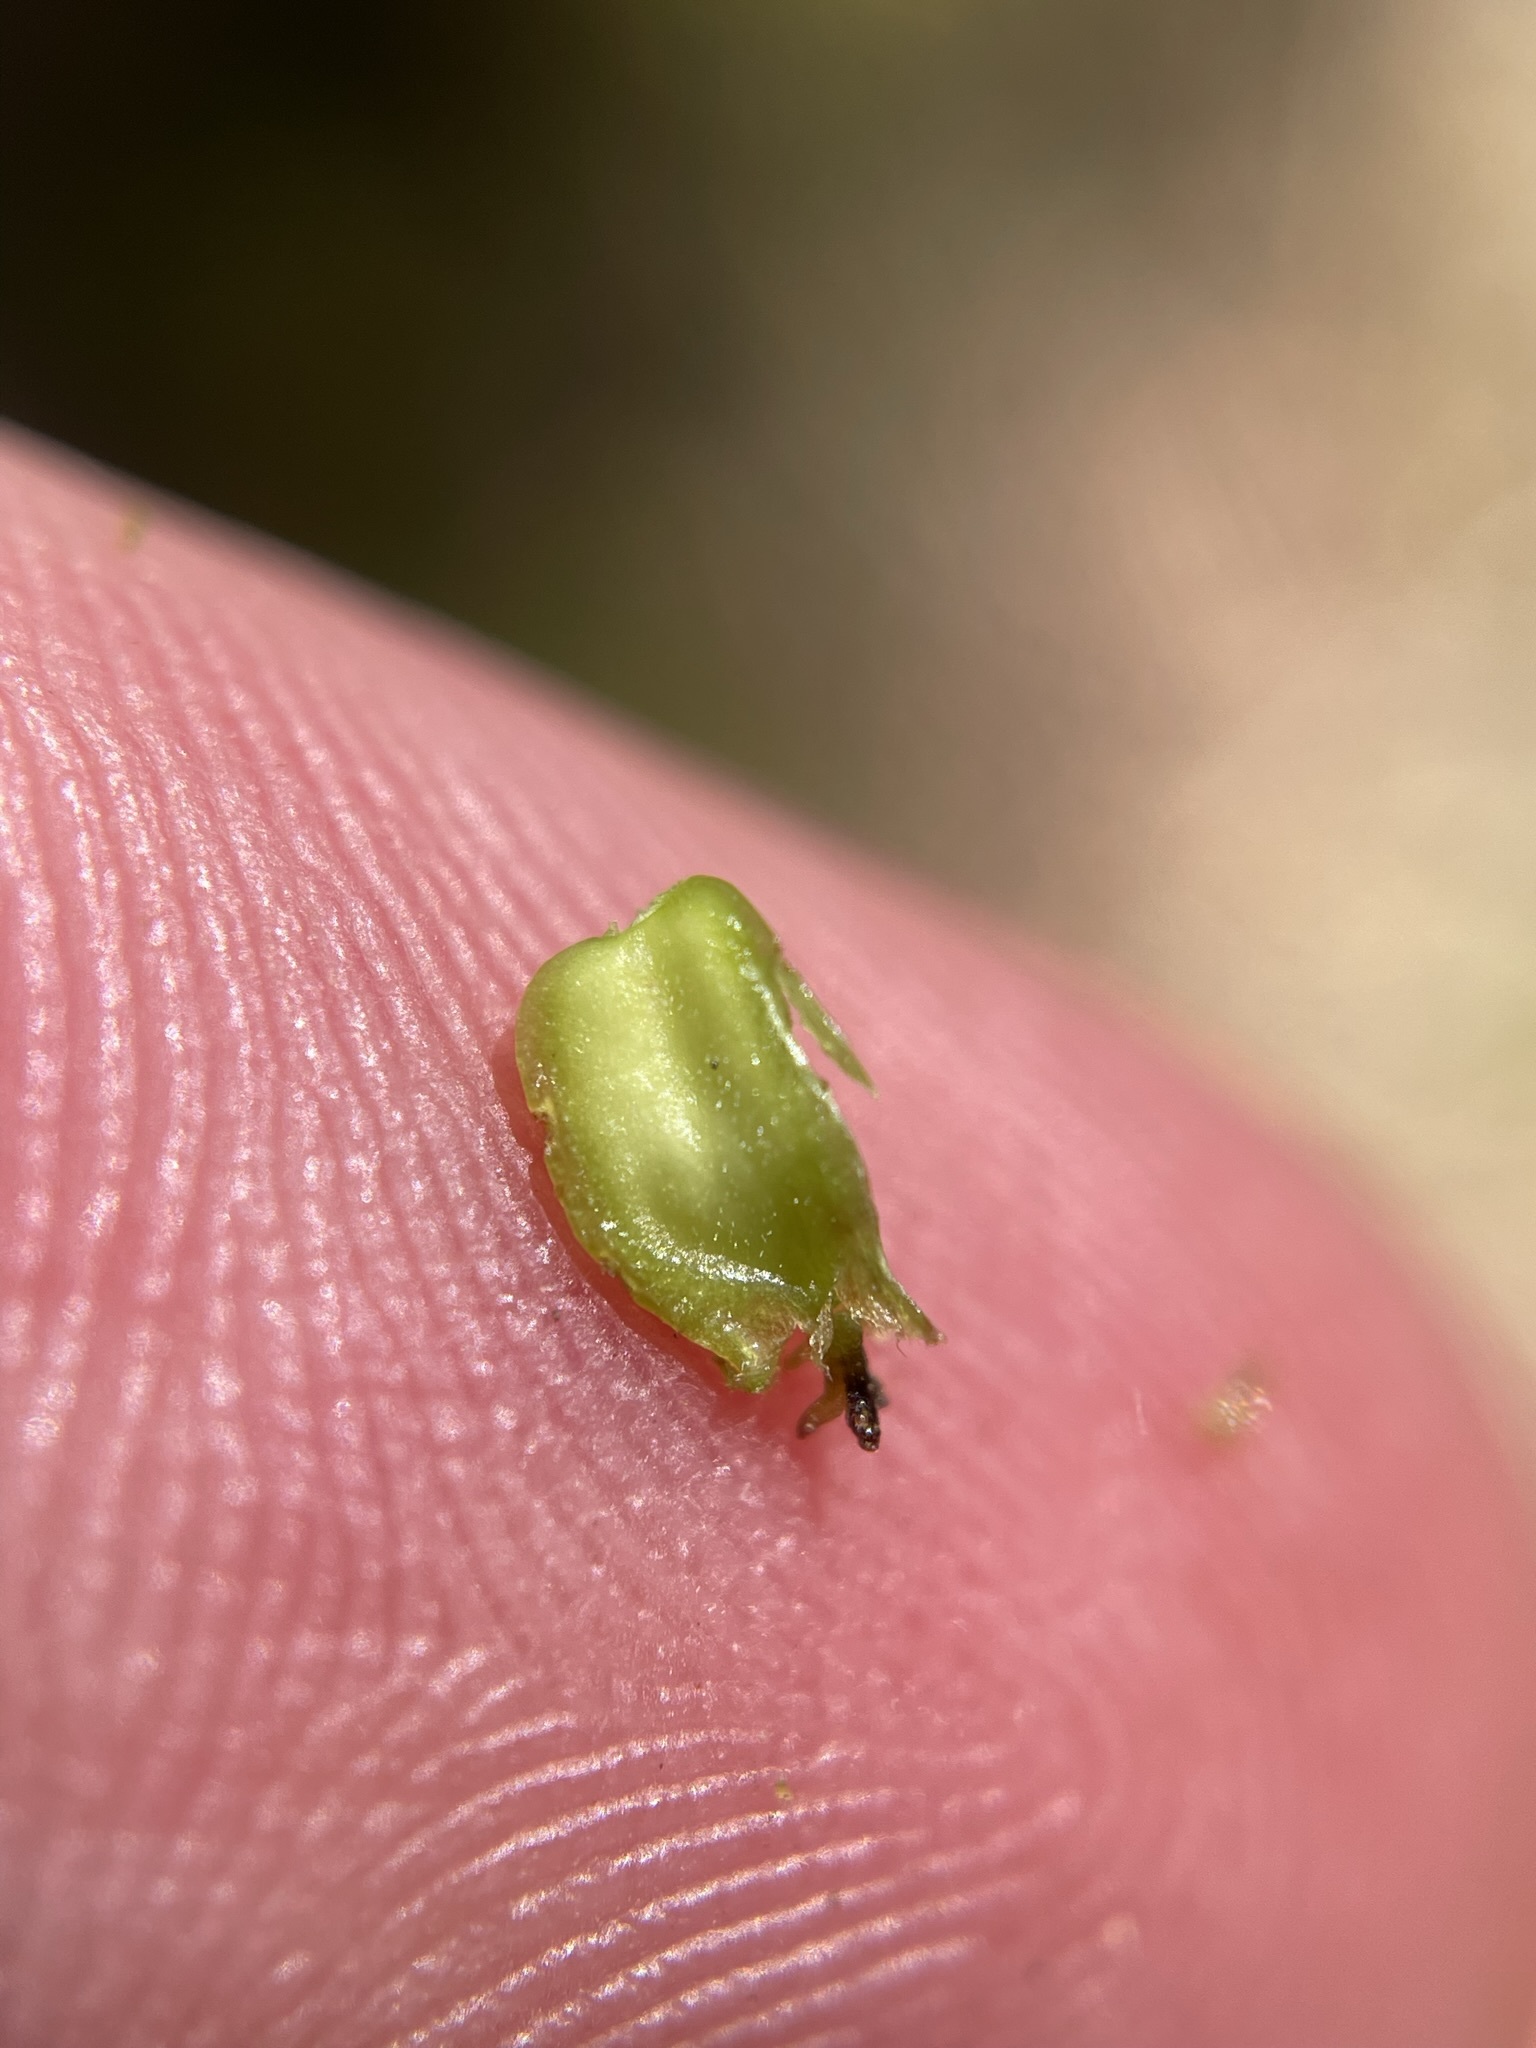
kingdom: Plantae
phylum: Tracheophyta
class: Magnoliopsida
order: Fagales
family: Nothofagaceae
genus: Nothofagus
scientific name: Nothofagus cunninghamii
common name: Myrtle beech
